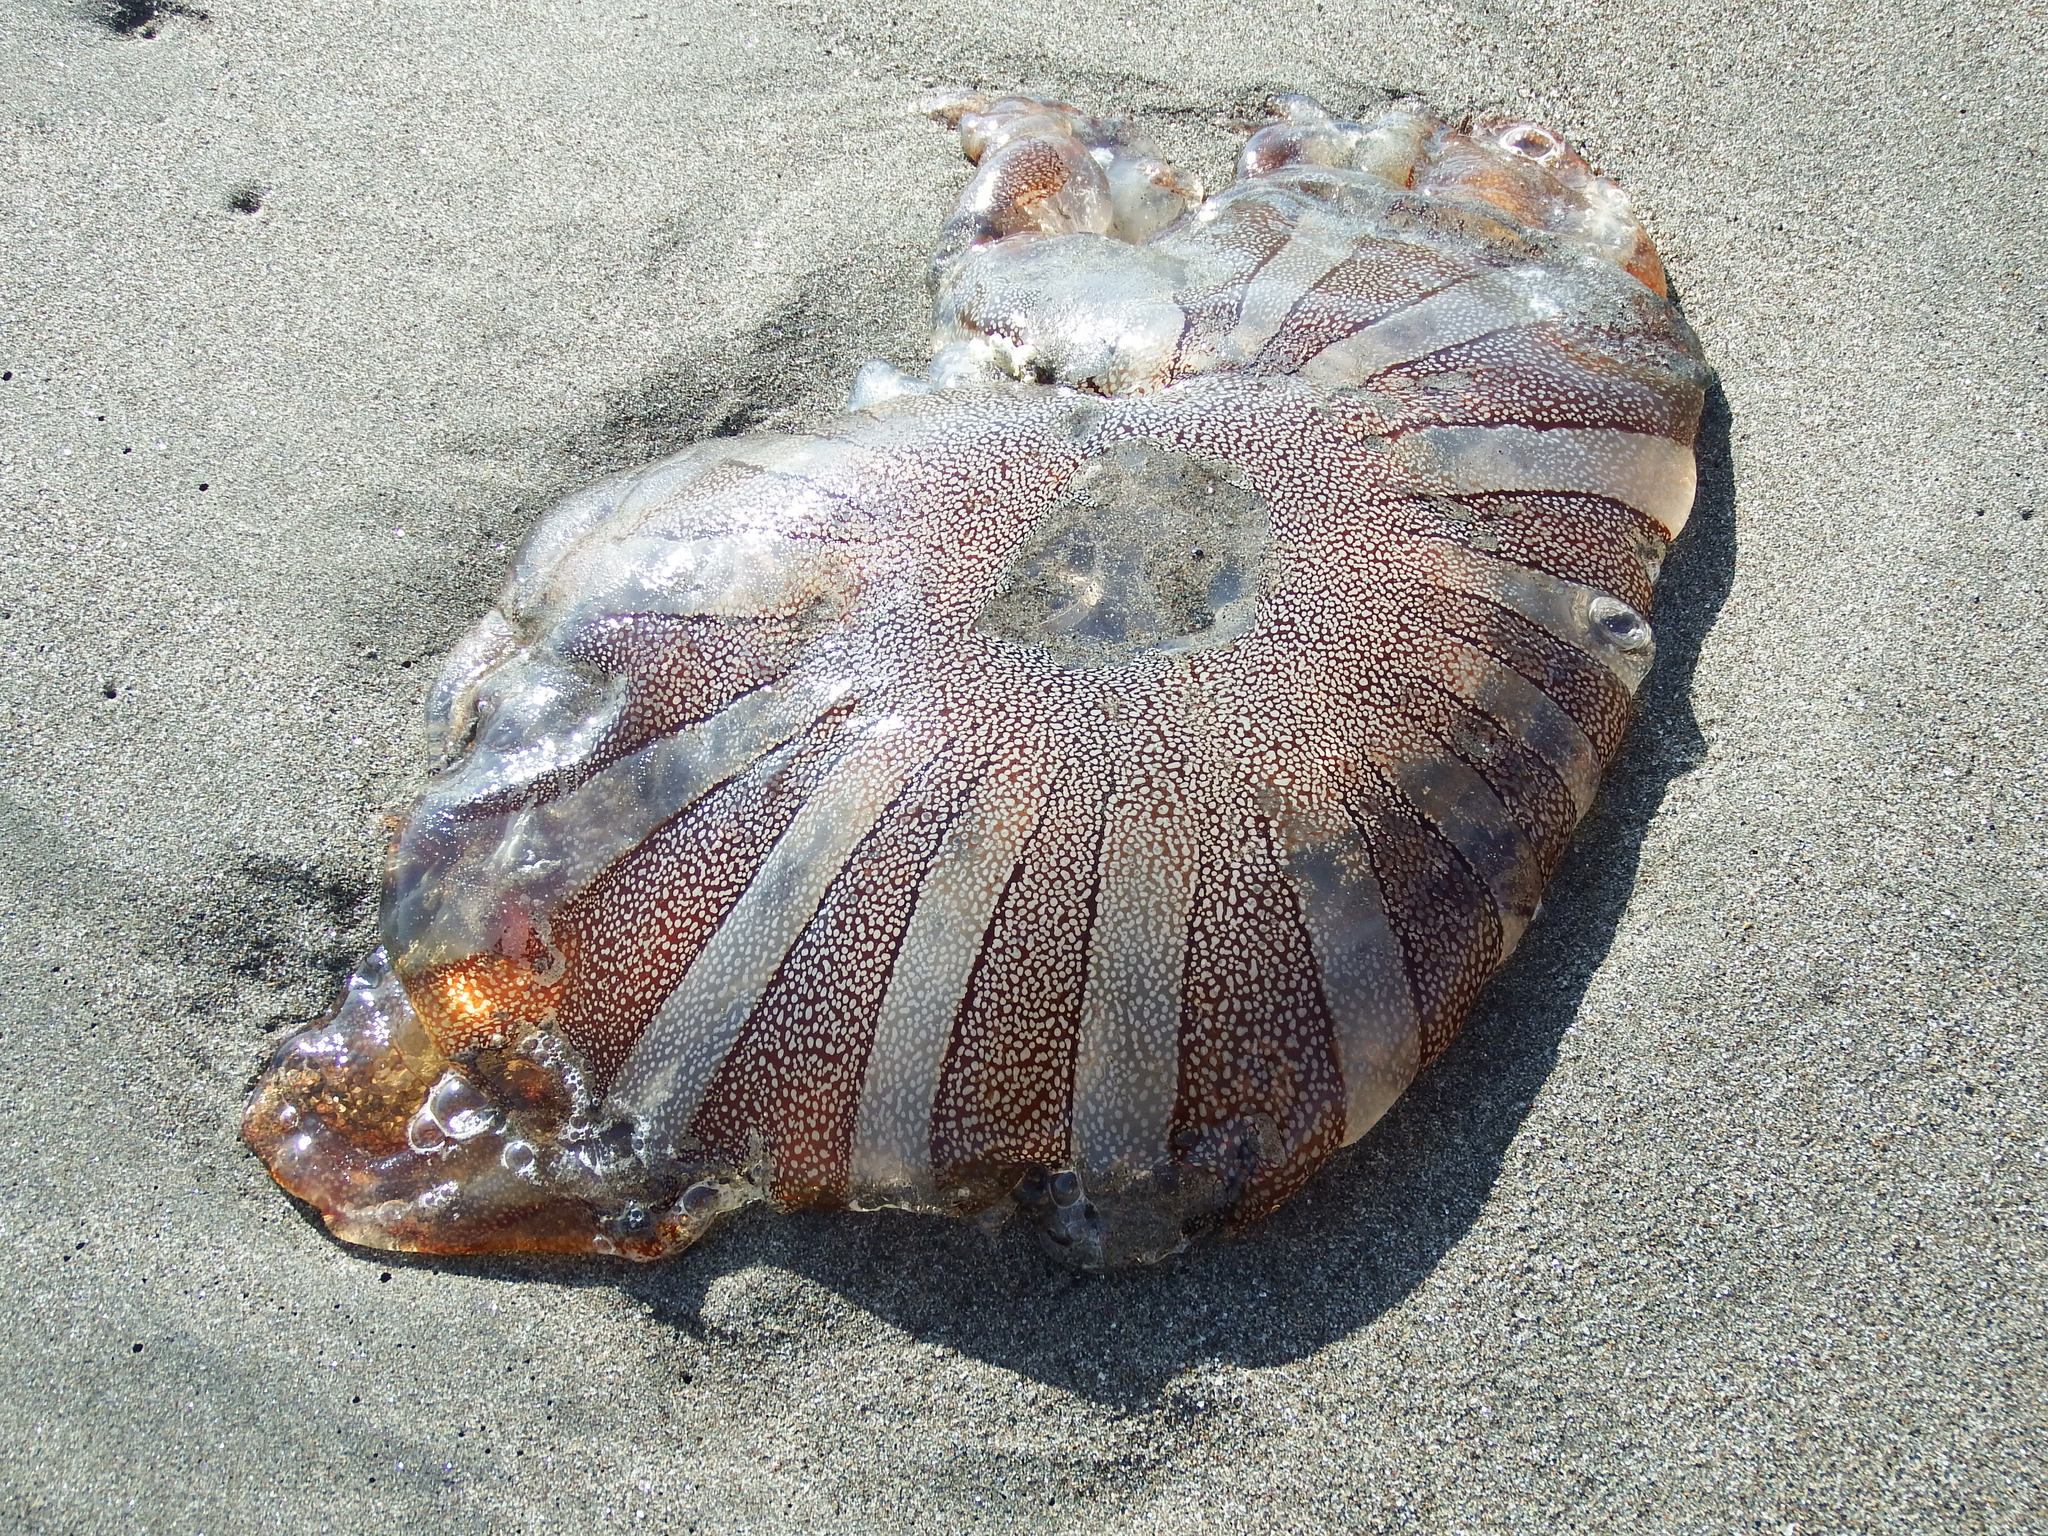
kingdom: Animalia
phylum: Cnidaria
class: Scyphozoa
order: Semaeostomeae
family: Pelagiidae
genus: Chrysaora
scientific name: Chrysaora plocamia
